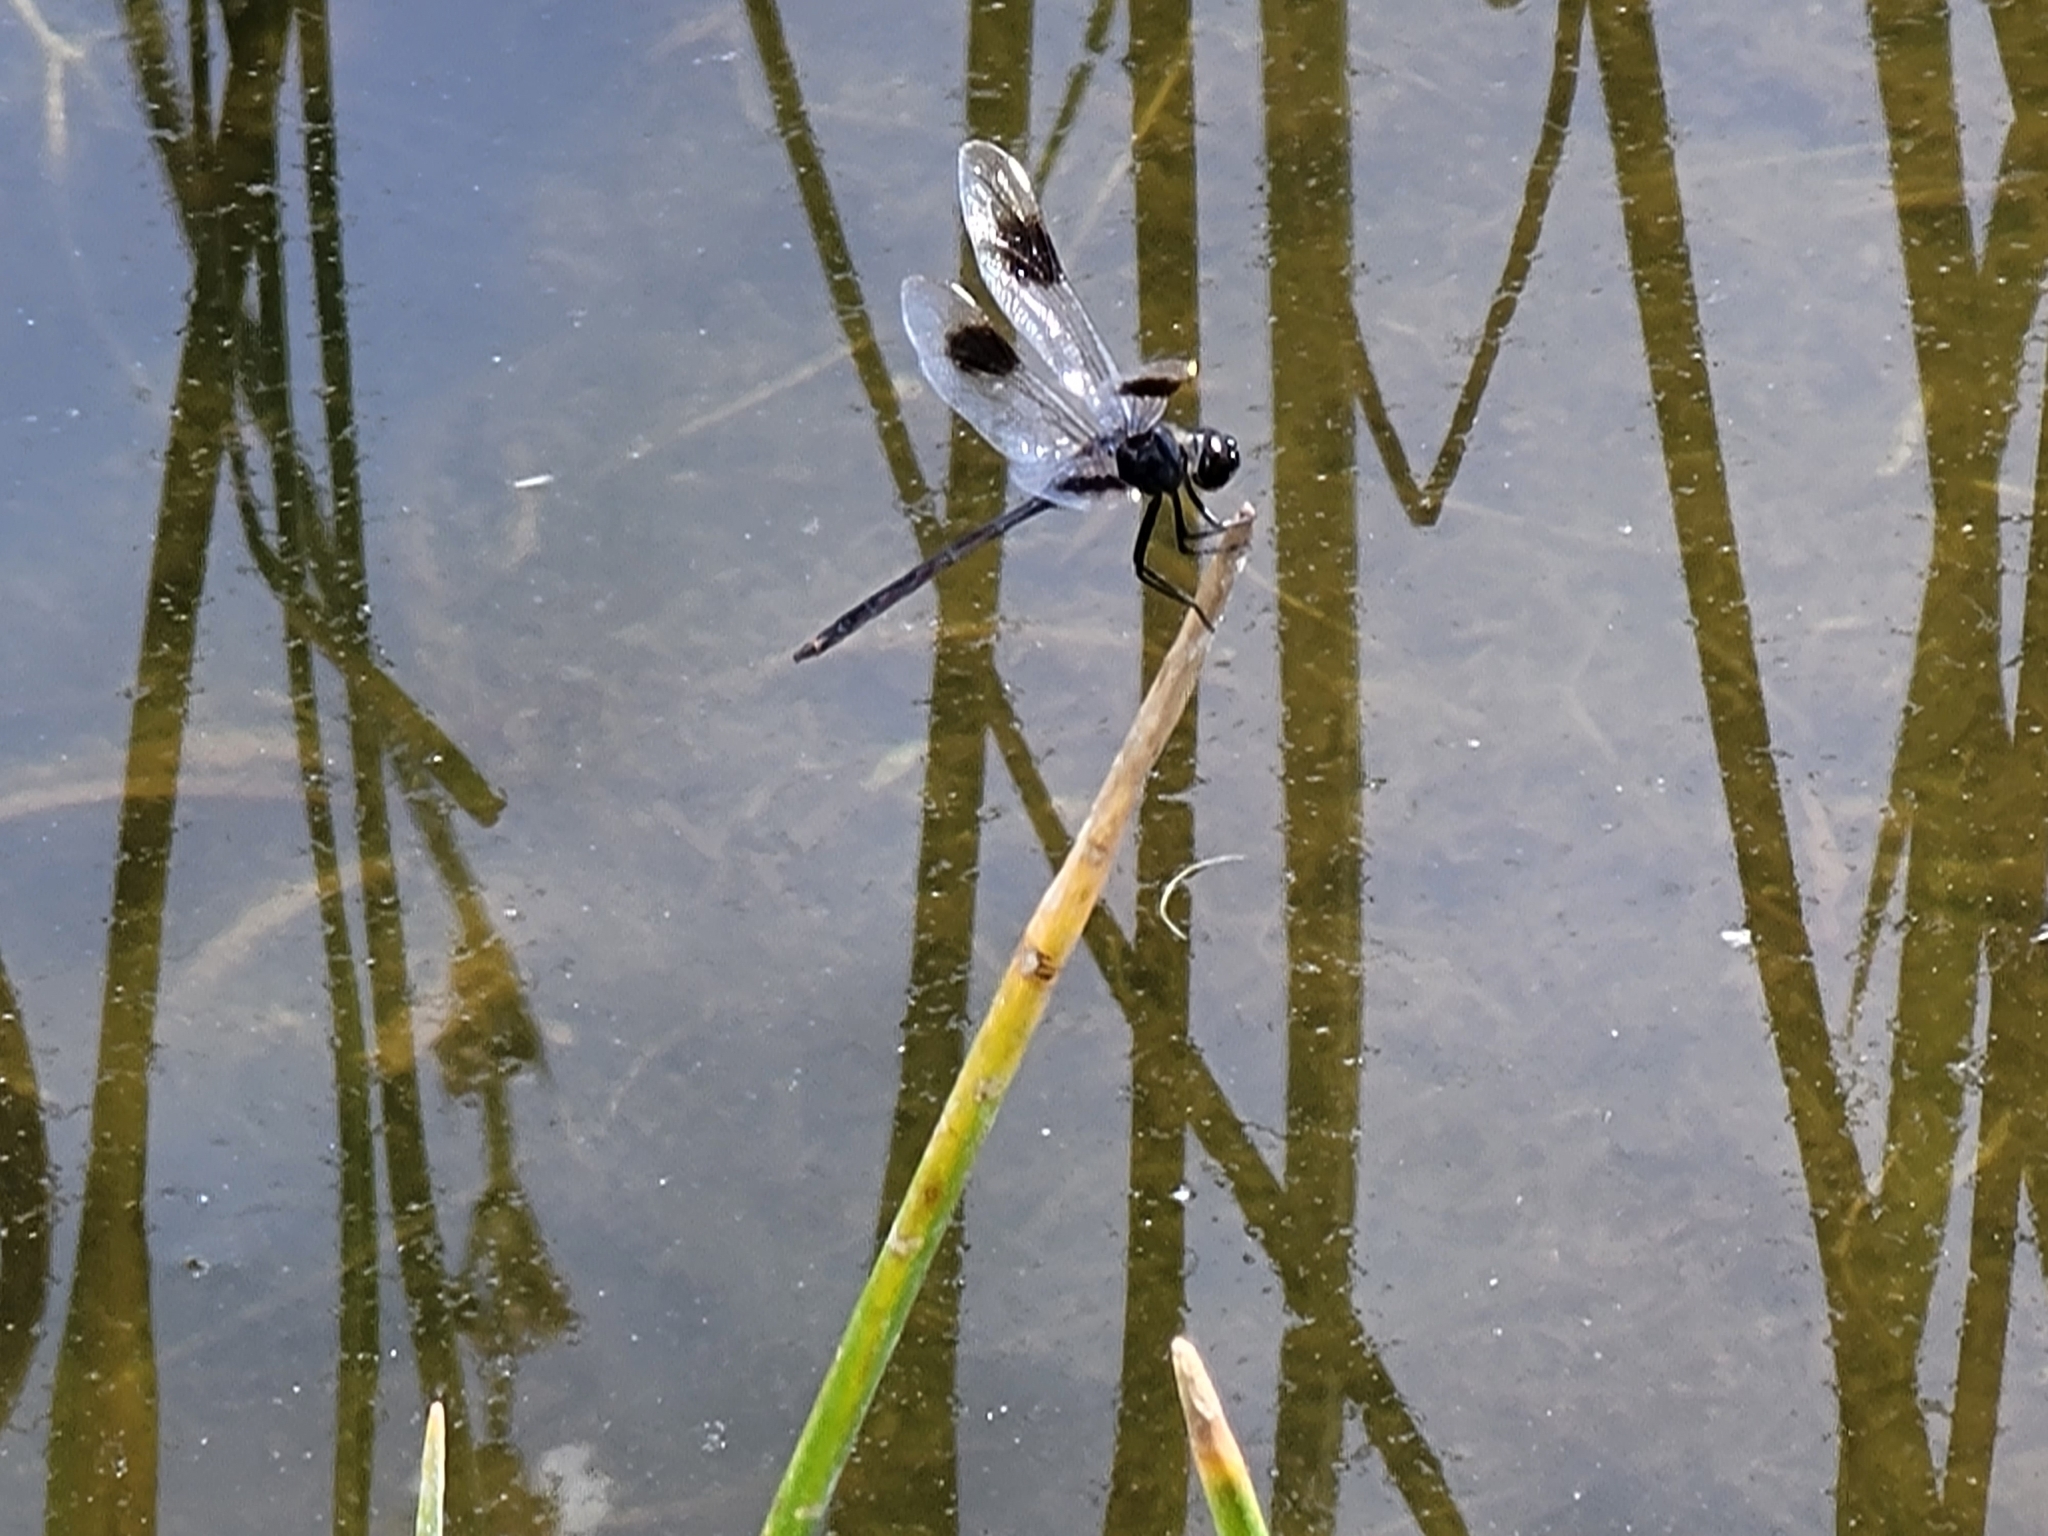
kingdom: Animalia
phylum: Arthropoda
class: Insecta
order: Odonata
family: Libellulidae
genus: Brachymesia
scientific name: Brachymesia gravida
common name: Four-spotted pennant
